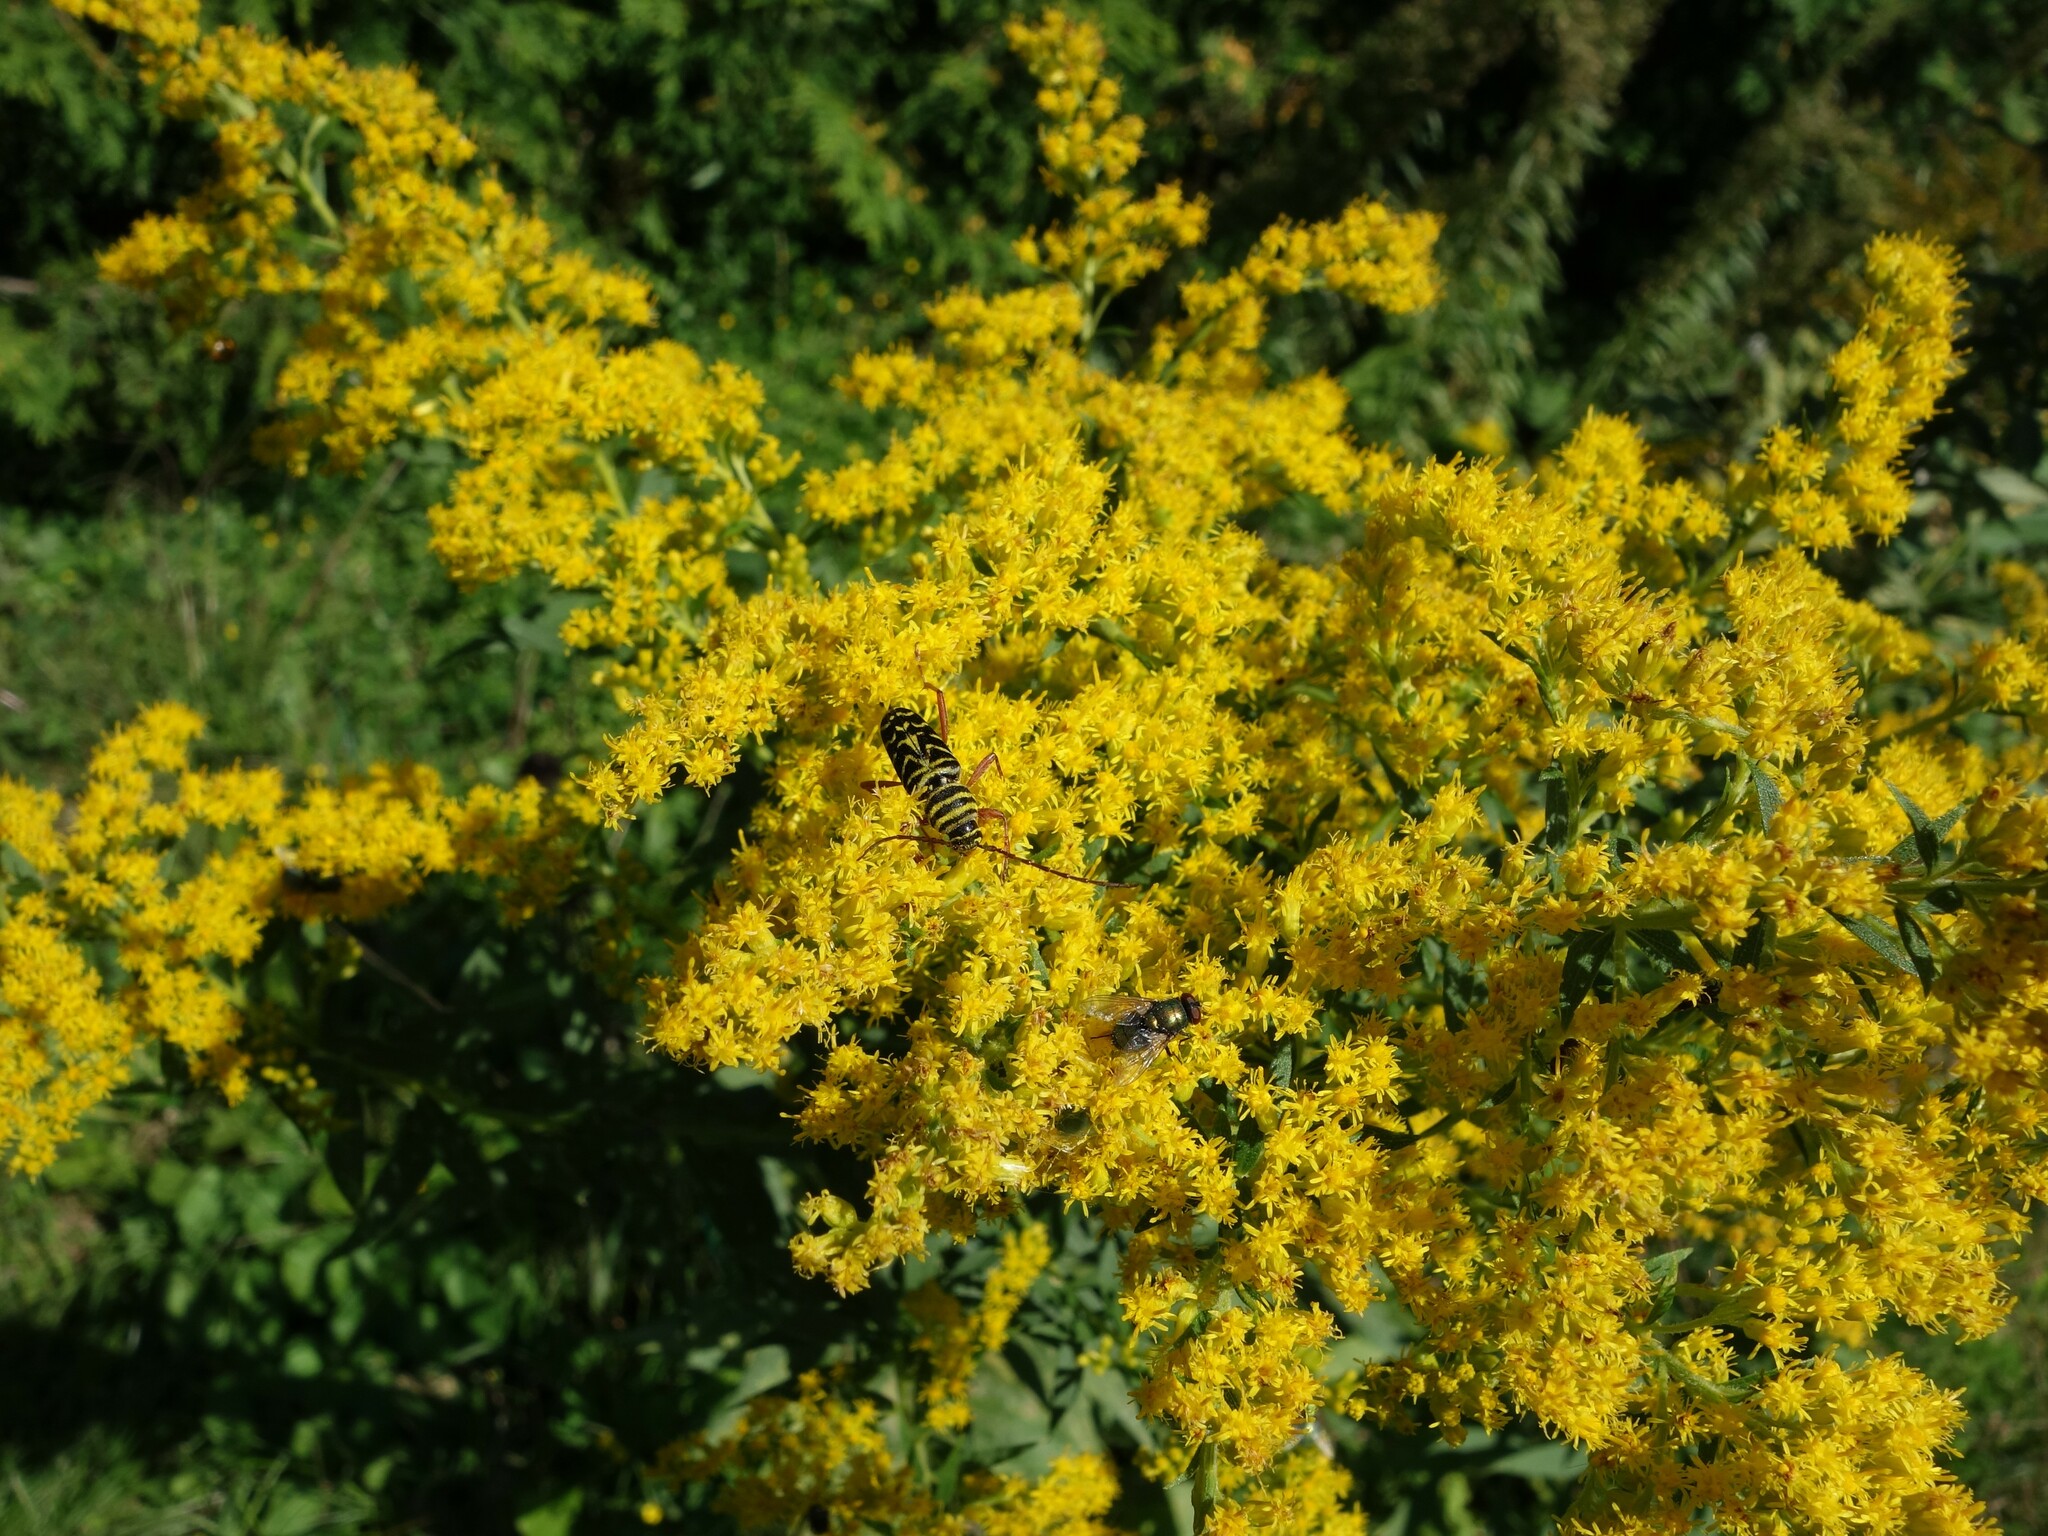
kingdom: Animalia
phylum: Arthropoda
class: Insecta
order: Coleoptera
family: Cerambycidae
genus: Megacyllene
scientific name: Megacyllene robiniae
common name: Locust borer
